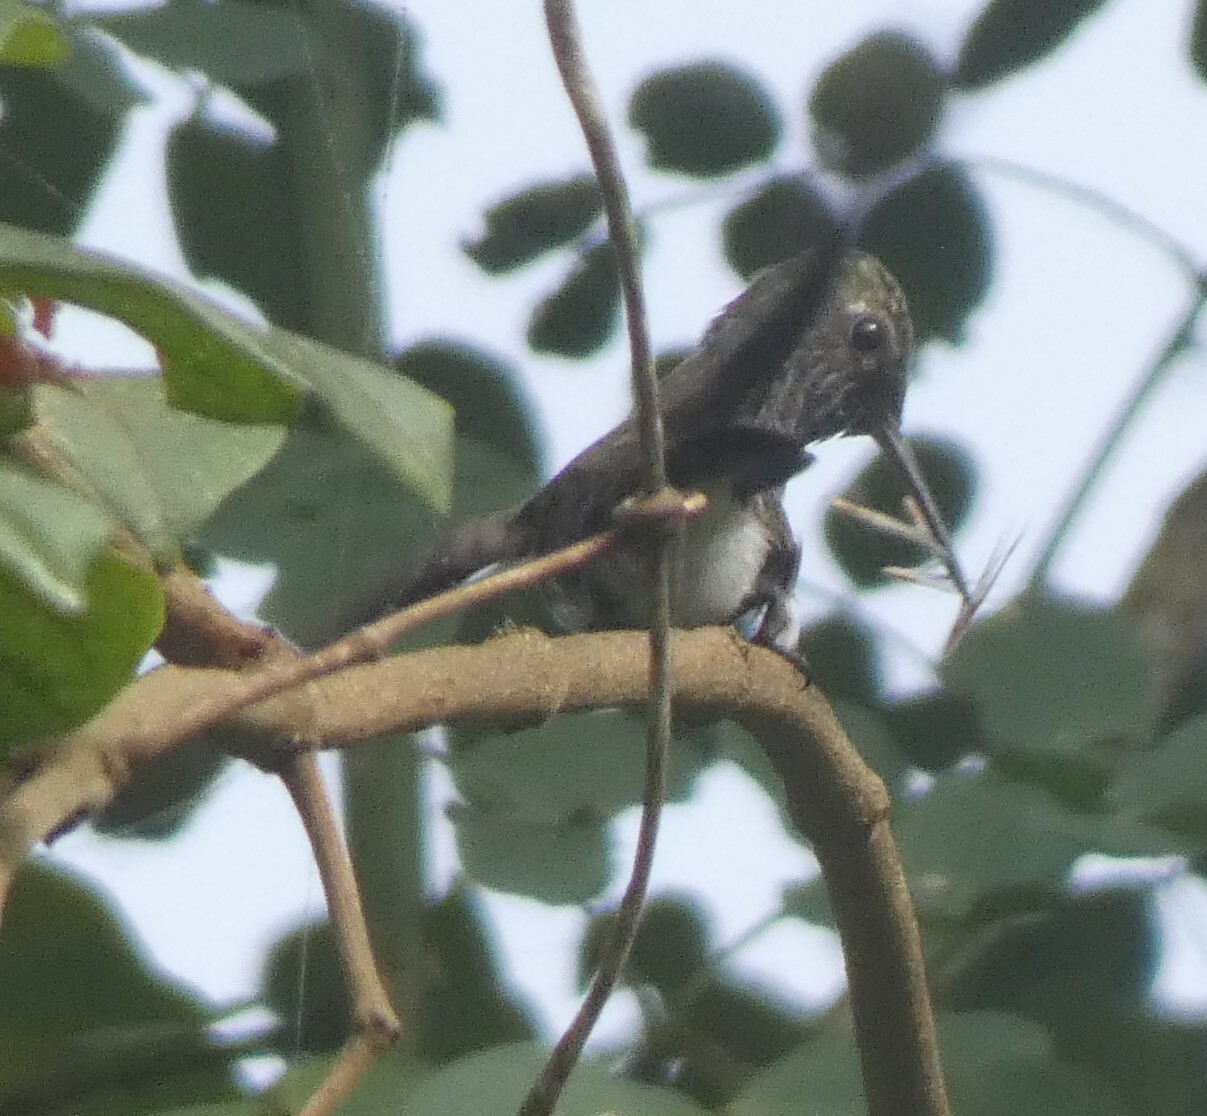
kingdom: Animalia
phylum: Chordata
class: Aves
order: Apodiformes
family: Trochilidae
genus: Chionomesa
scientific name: Chionomesa lactea
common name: Sapphire-spangled emerald
